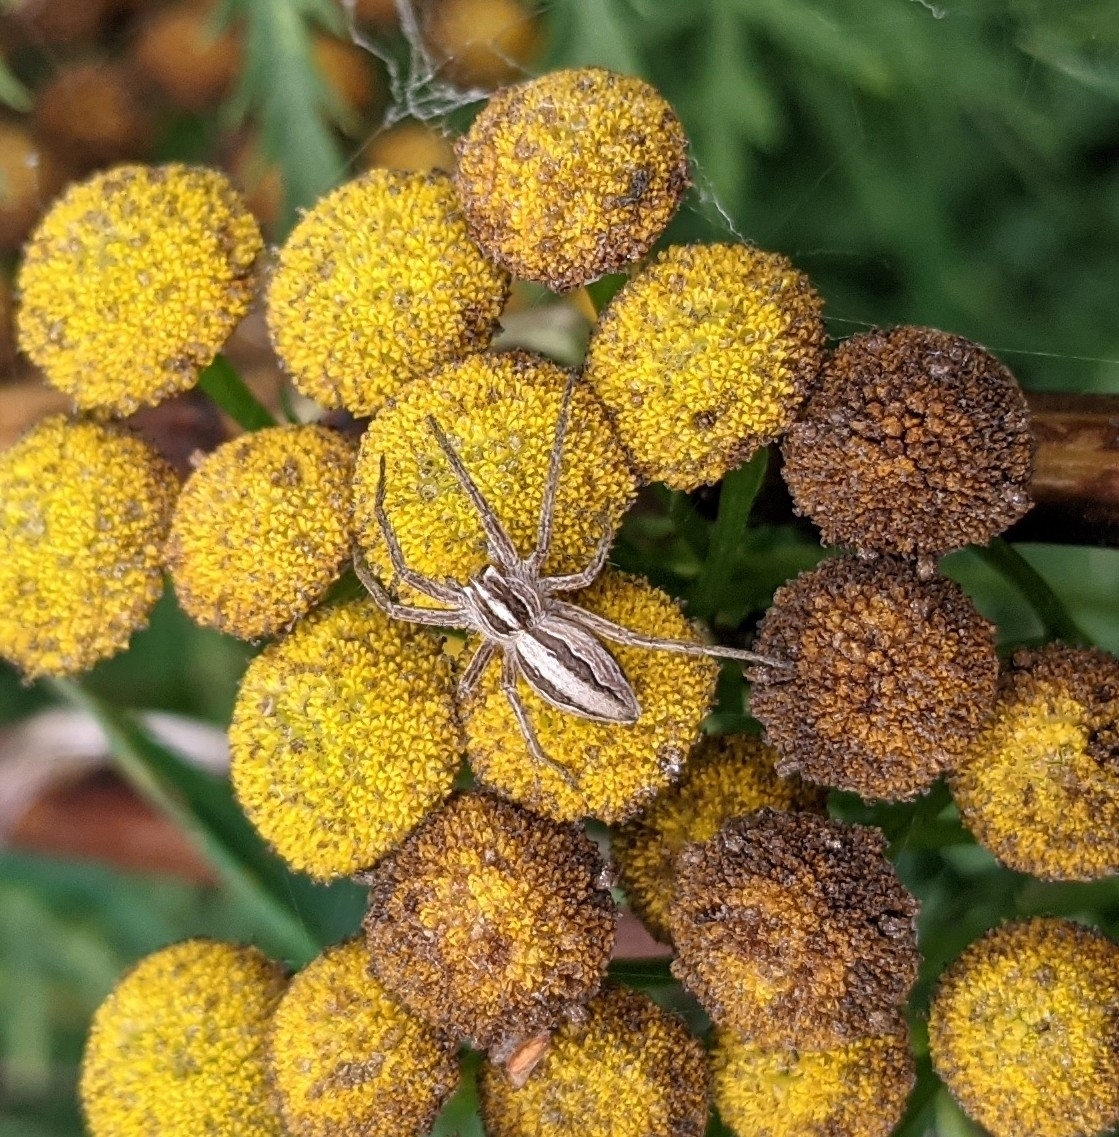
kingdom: Animalia
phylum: Arthropoda
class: Arachnida
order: Araneae
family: Pisauridae
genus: Pisaura
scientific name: Pisaura mirabilis
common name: Tent spider
